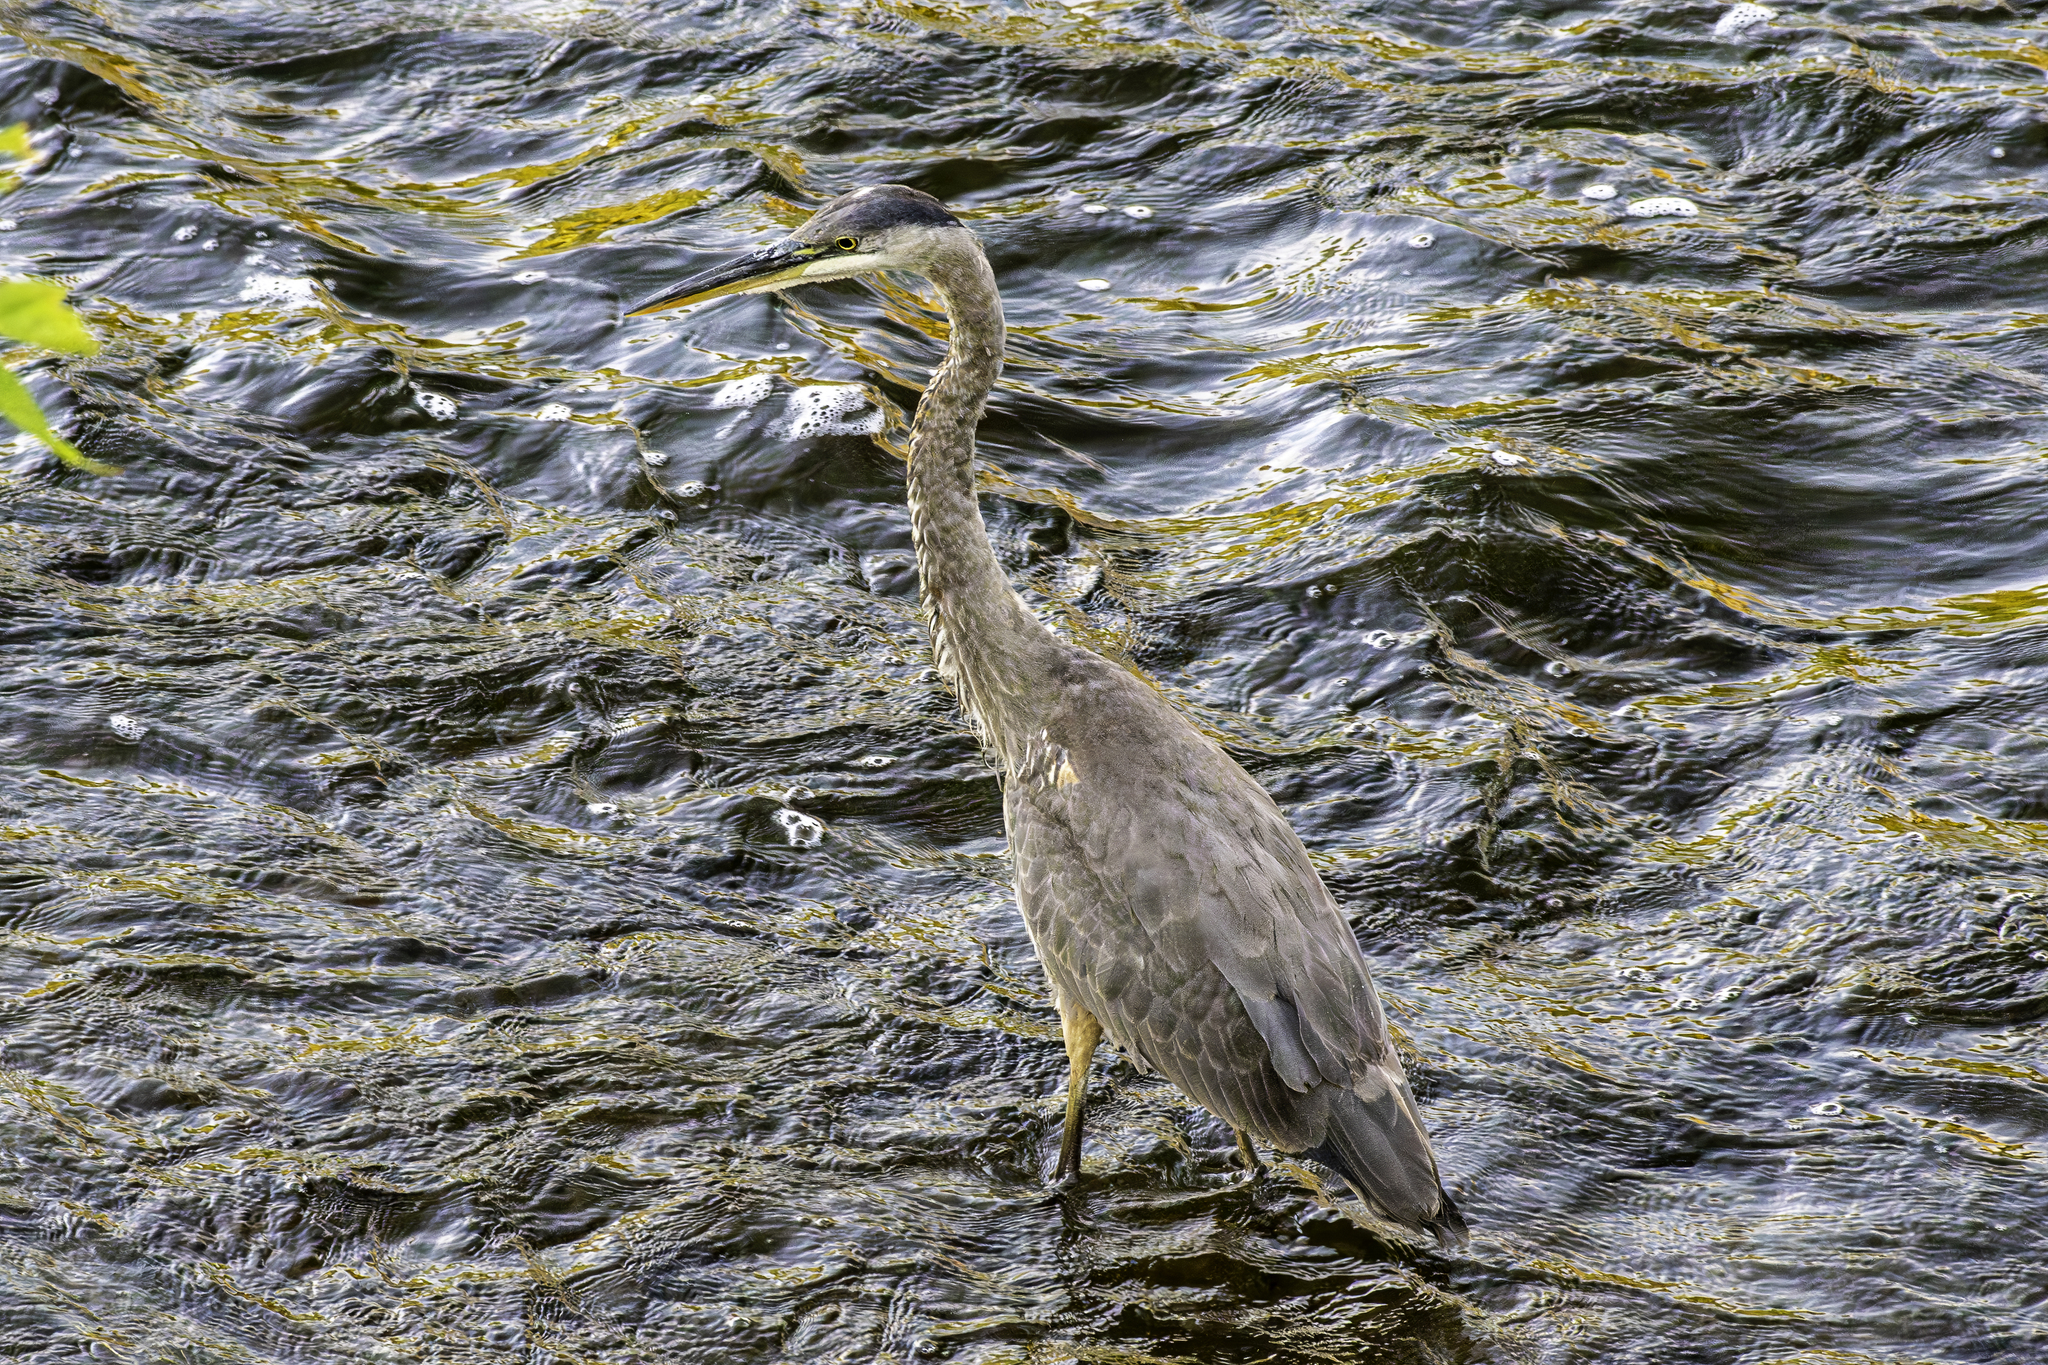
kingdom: Animalia
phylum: Chordata
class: Aves
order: Pelecaniformes
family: Ardeidae
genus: Ardea
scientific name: Ardea herodias
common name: Great blue heron
